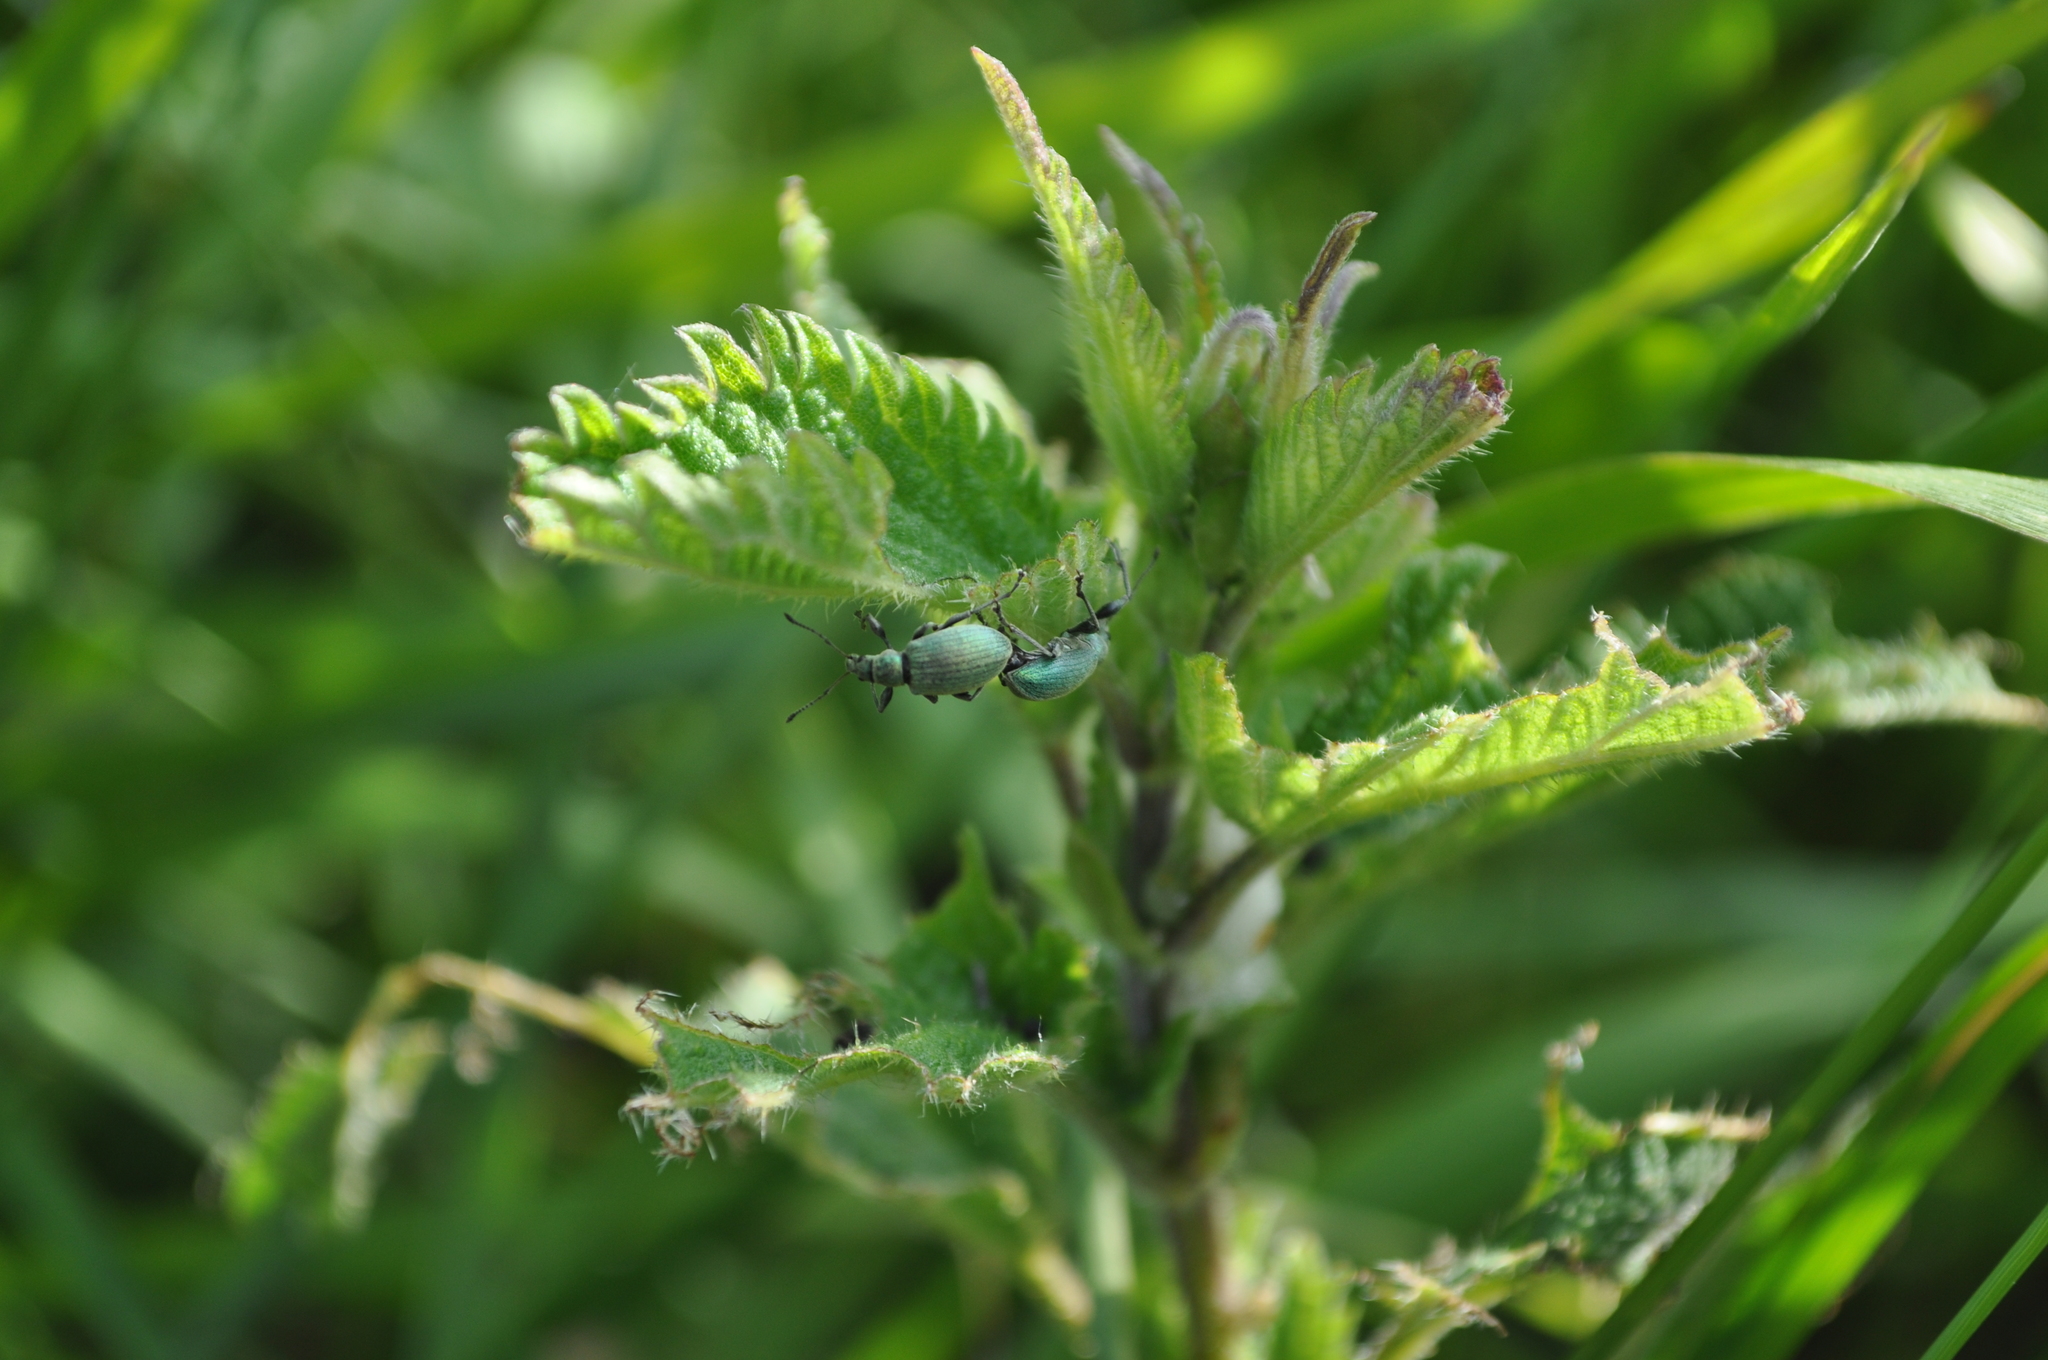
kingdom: Animalia
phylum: Arthropoda
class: Insecta
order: Coleoptera
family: Curculionidae
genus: Phyllobius
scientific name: Phyllobius pomaceus
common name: Green nettle weevil
